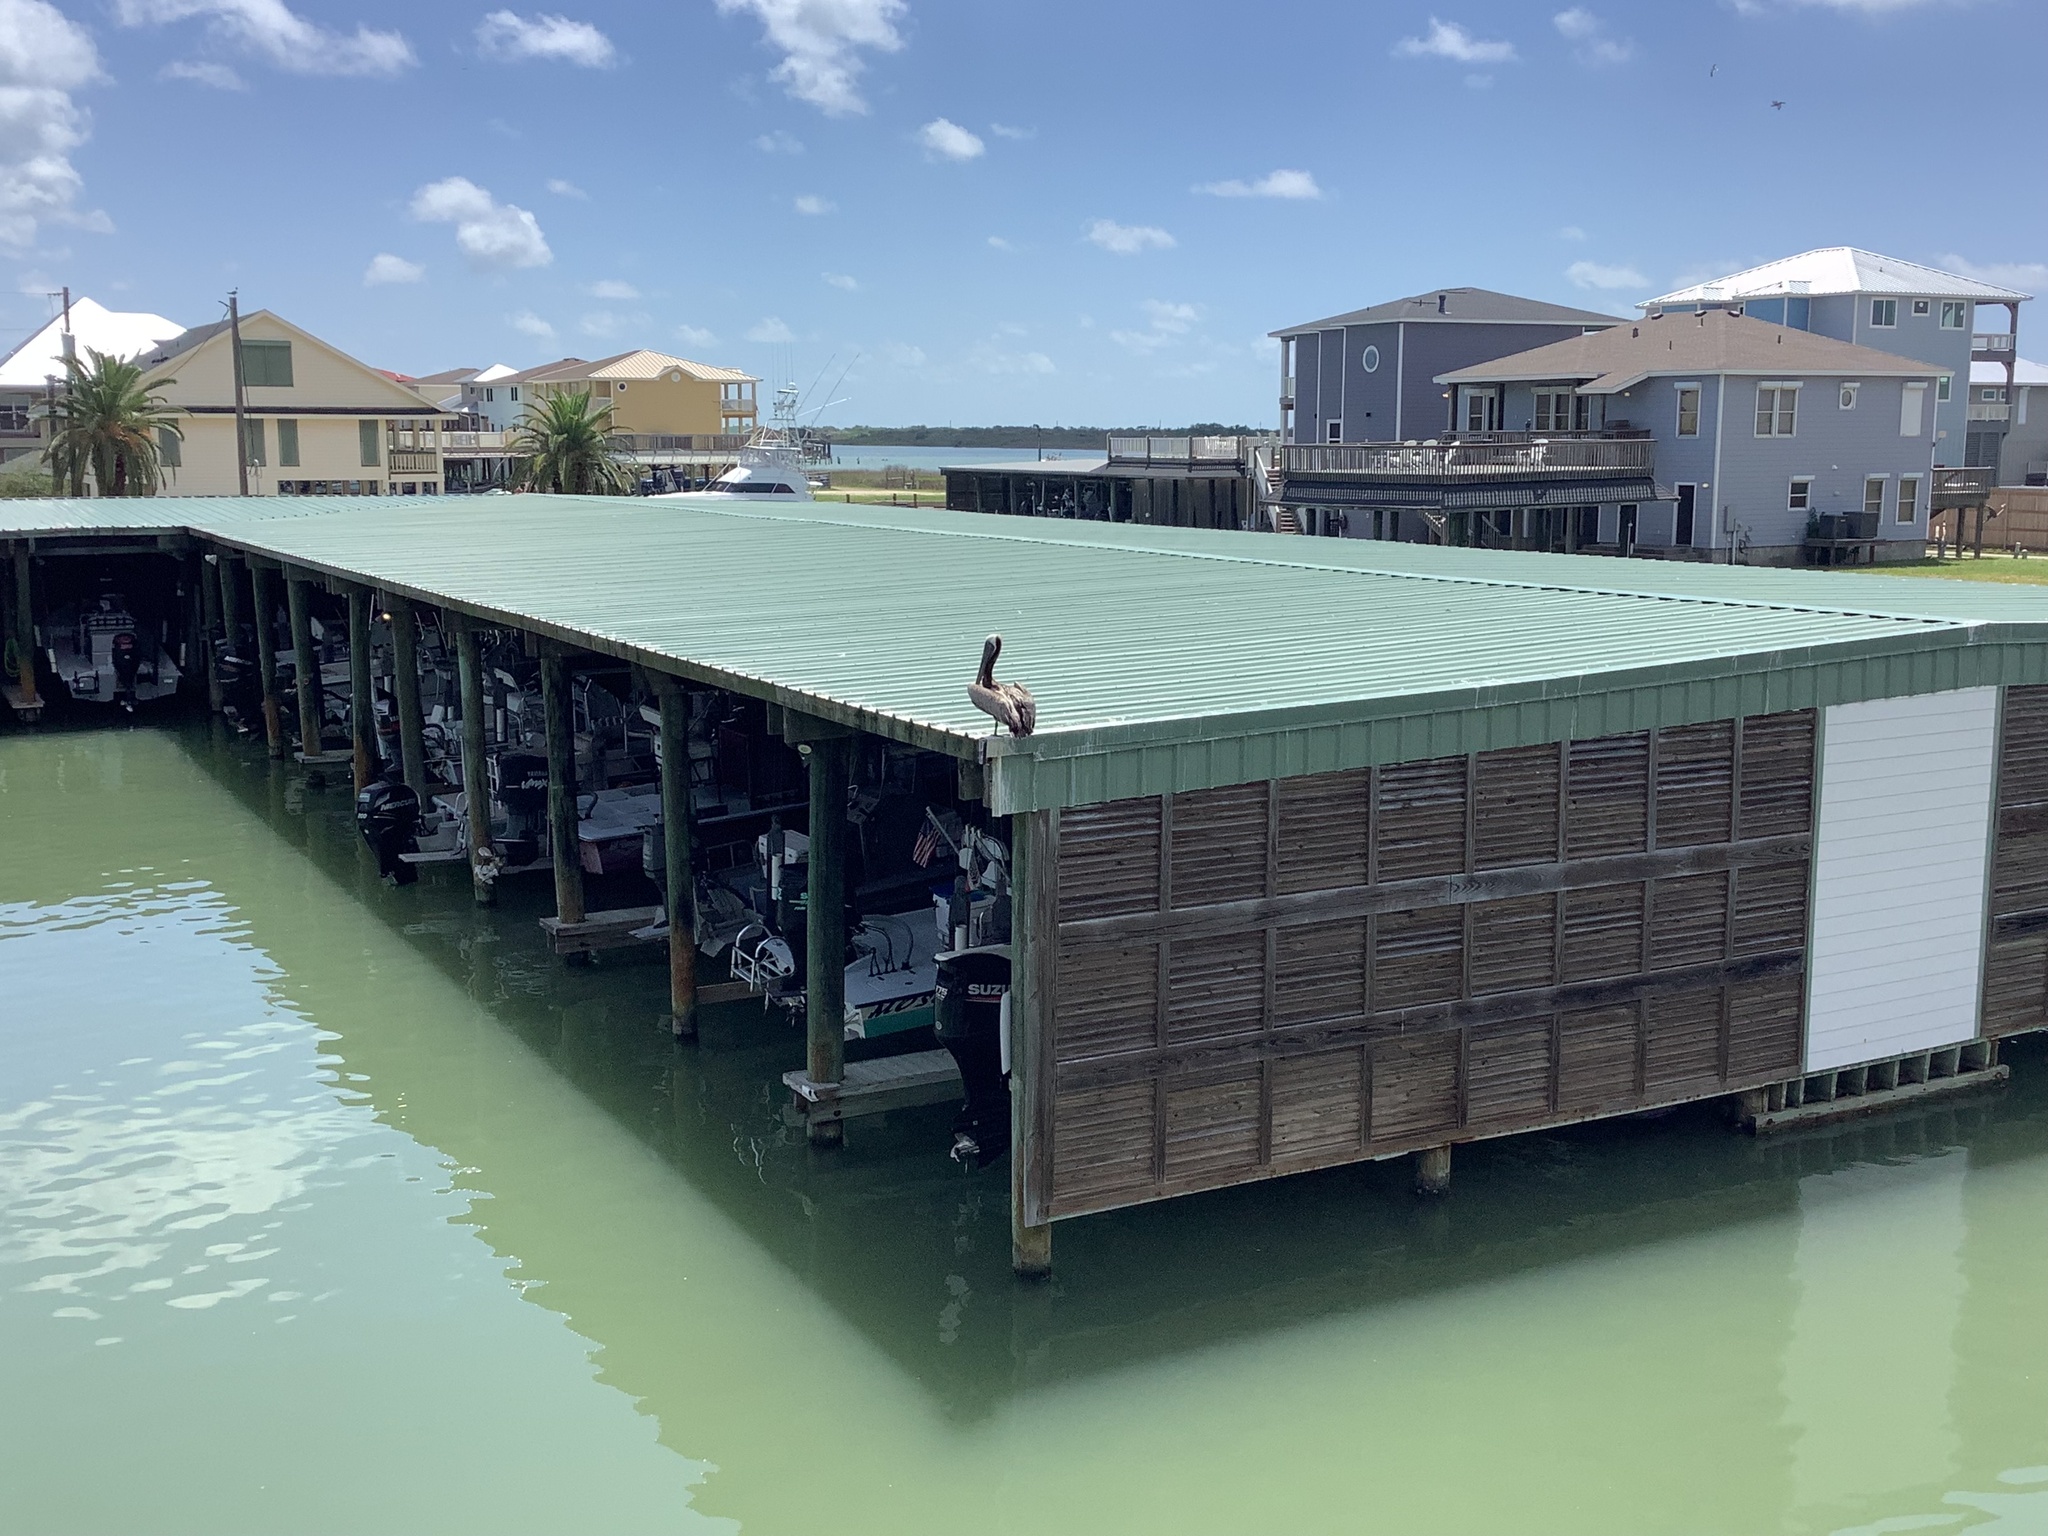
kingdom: Animalia
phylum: Chordata
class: Aves
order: Pelecaniformes
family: Pelecanidae
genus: Pelecanus
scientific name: Pelecanus occidentalis
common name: Brown pelican
